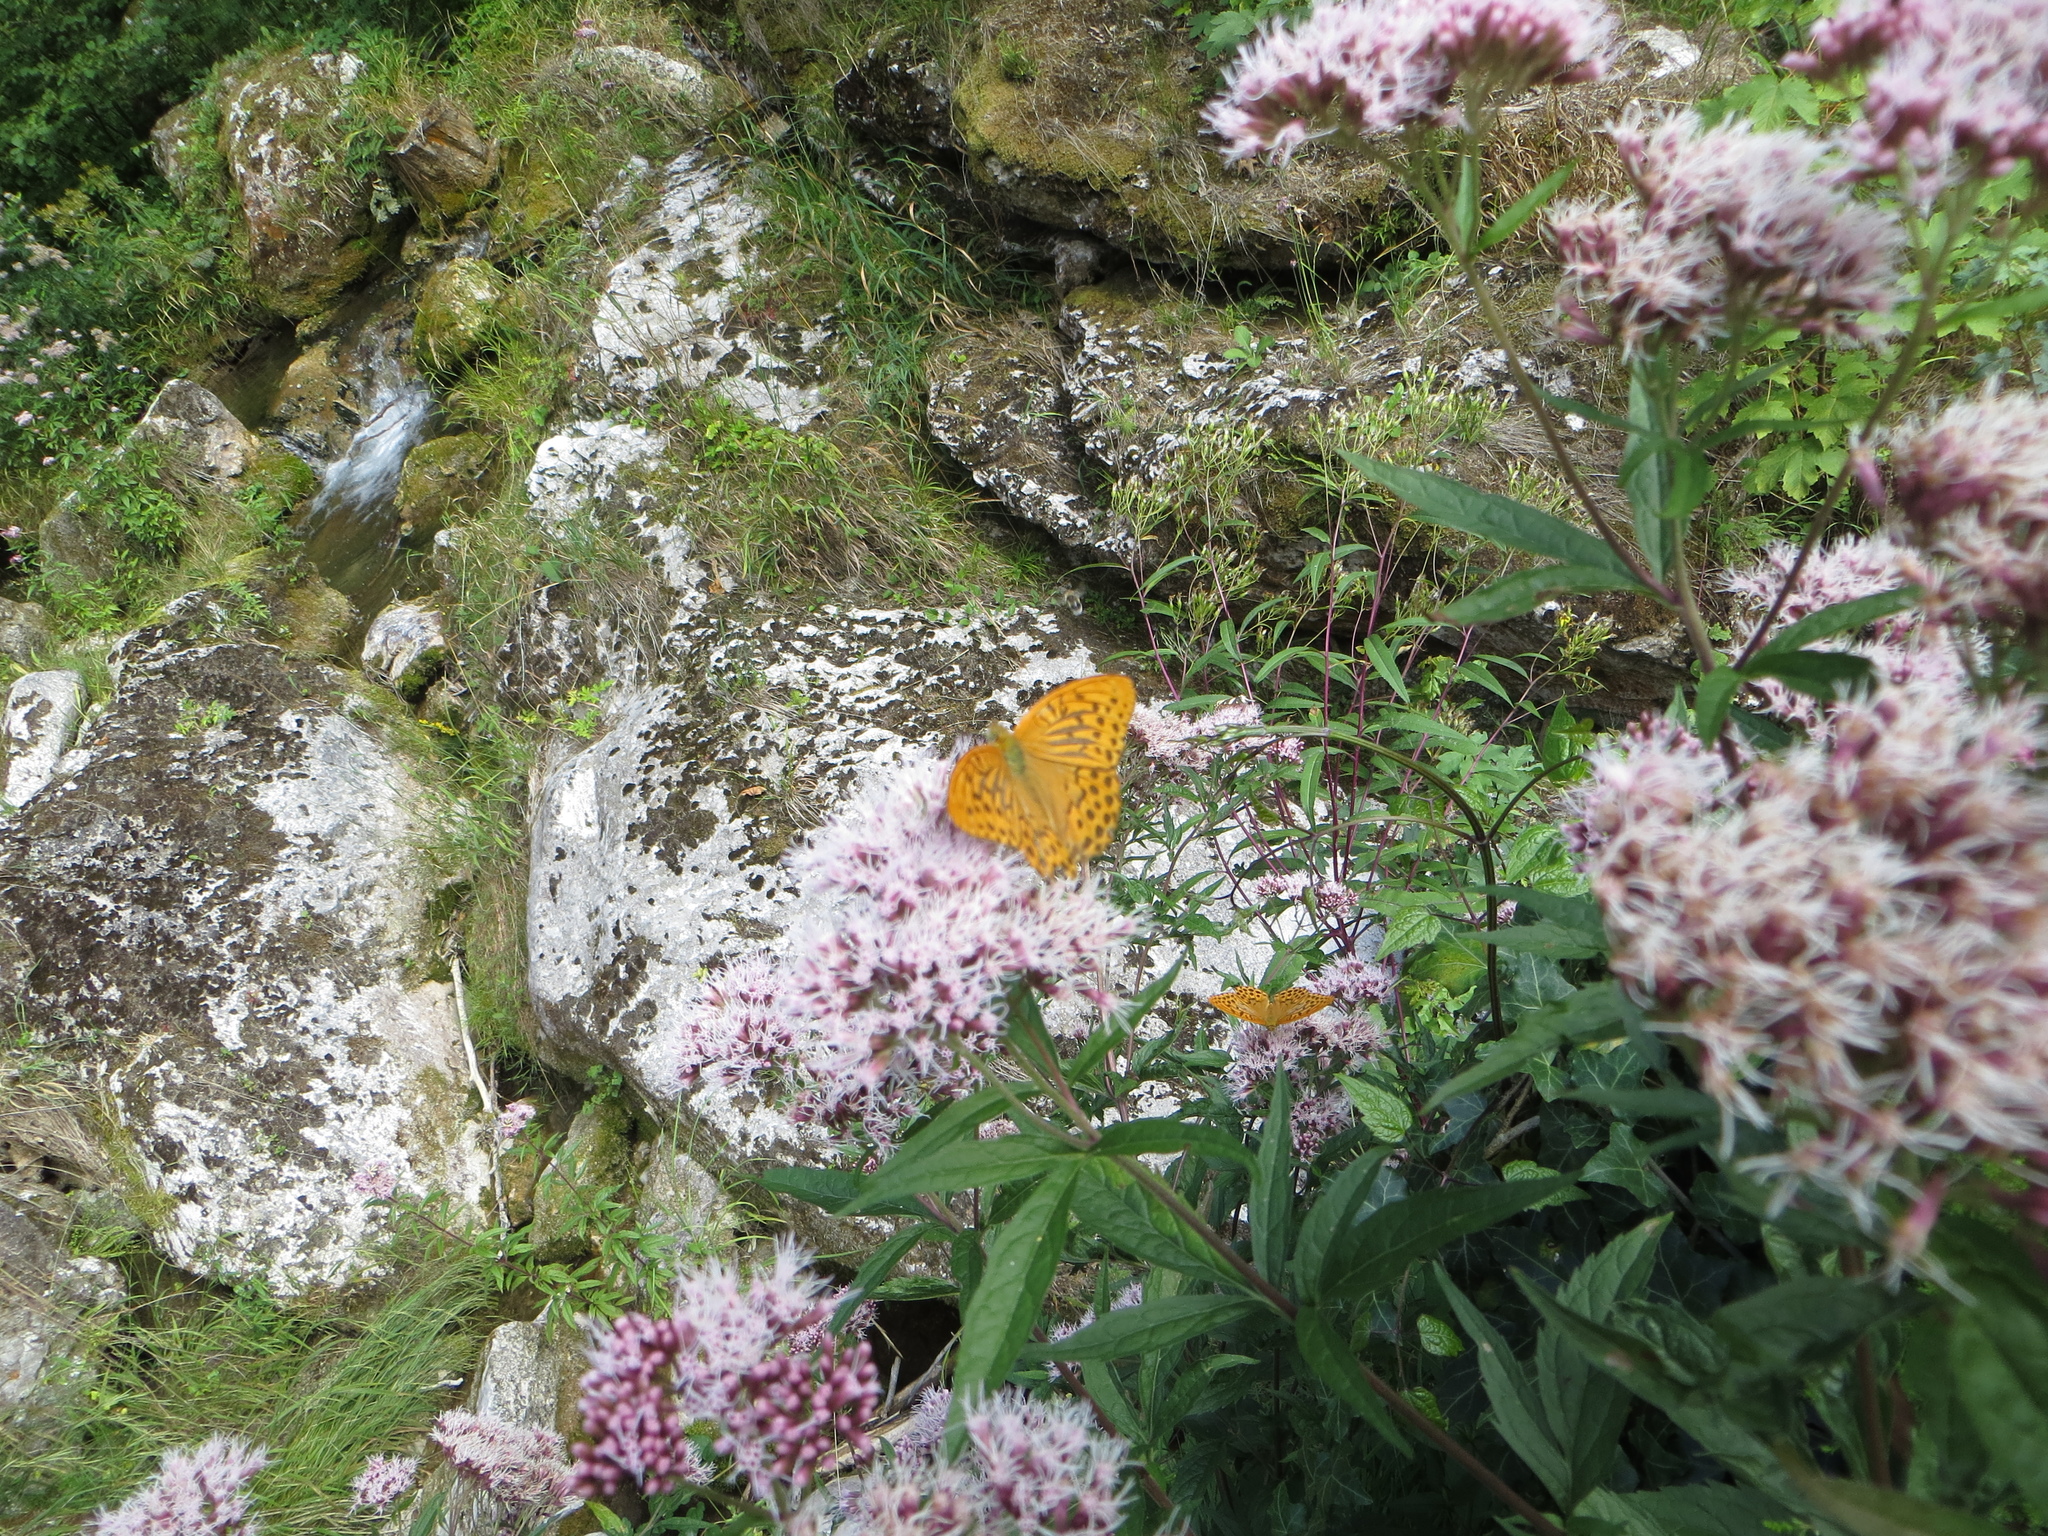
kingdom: Animalia
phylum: Arthropoda
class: Insecta
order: Lepidoptera
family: Nymphalidae
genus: Argynnis
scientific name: Argynnis paphia
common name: Silver-washed fritillary
